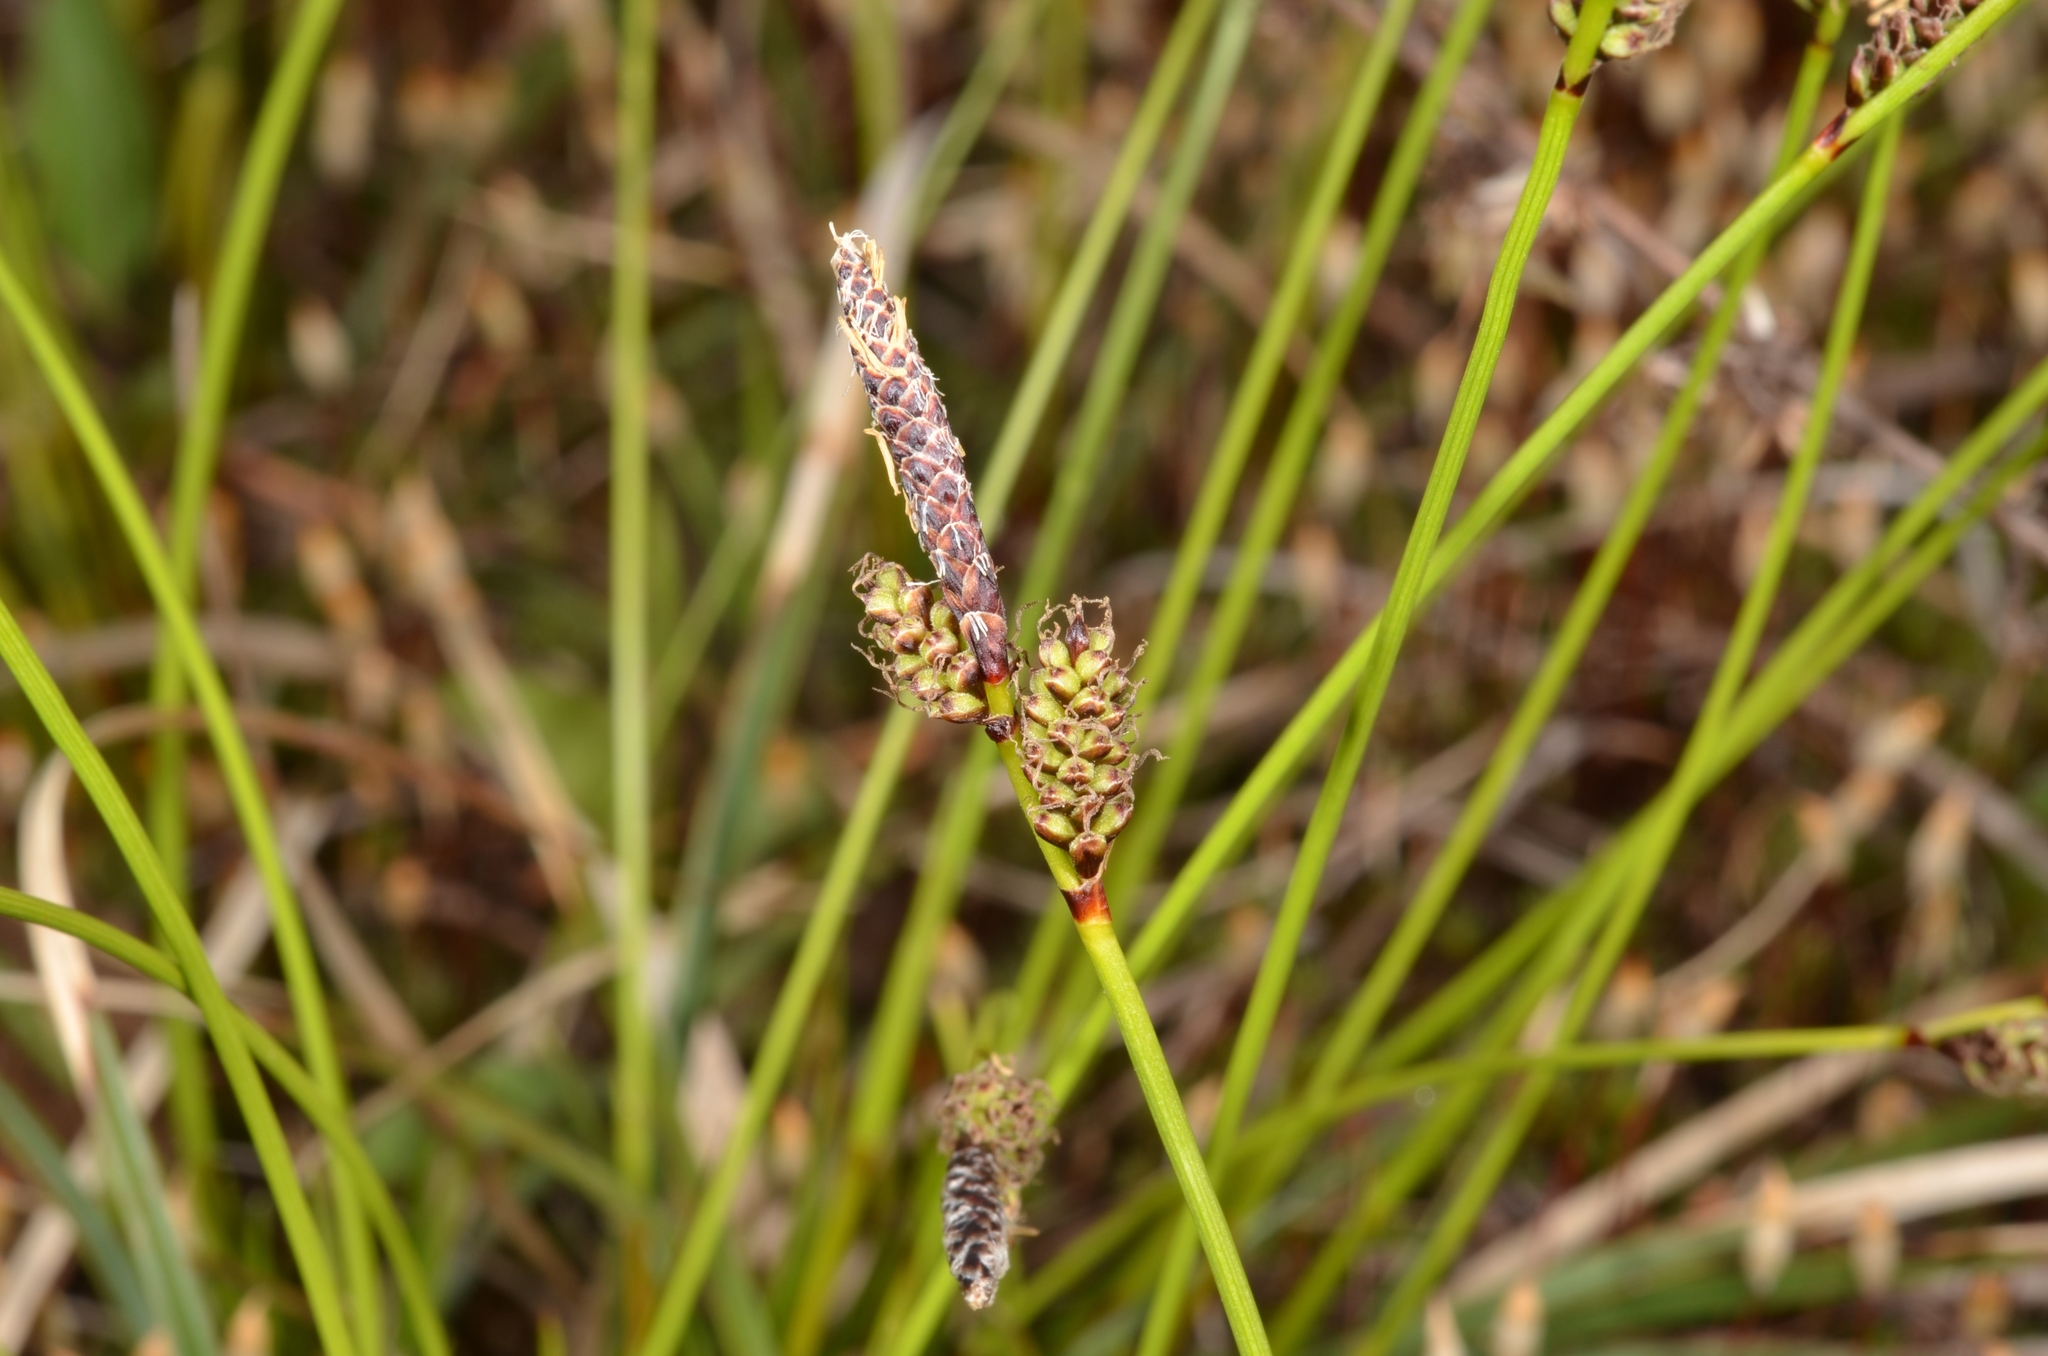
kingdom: Plantae
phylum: Tracheophyta
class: Liliopsida
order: Poales
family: Cyperaceae
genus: Carex
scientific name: Carex ericetorum
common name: Rare spring-sedge
